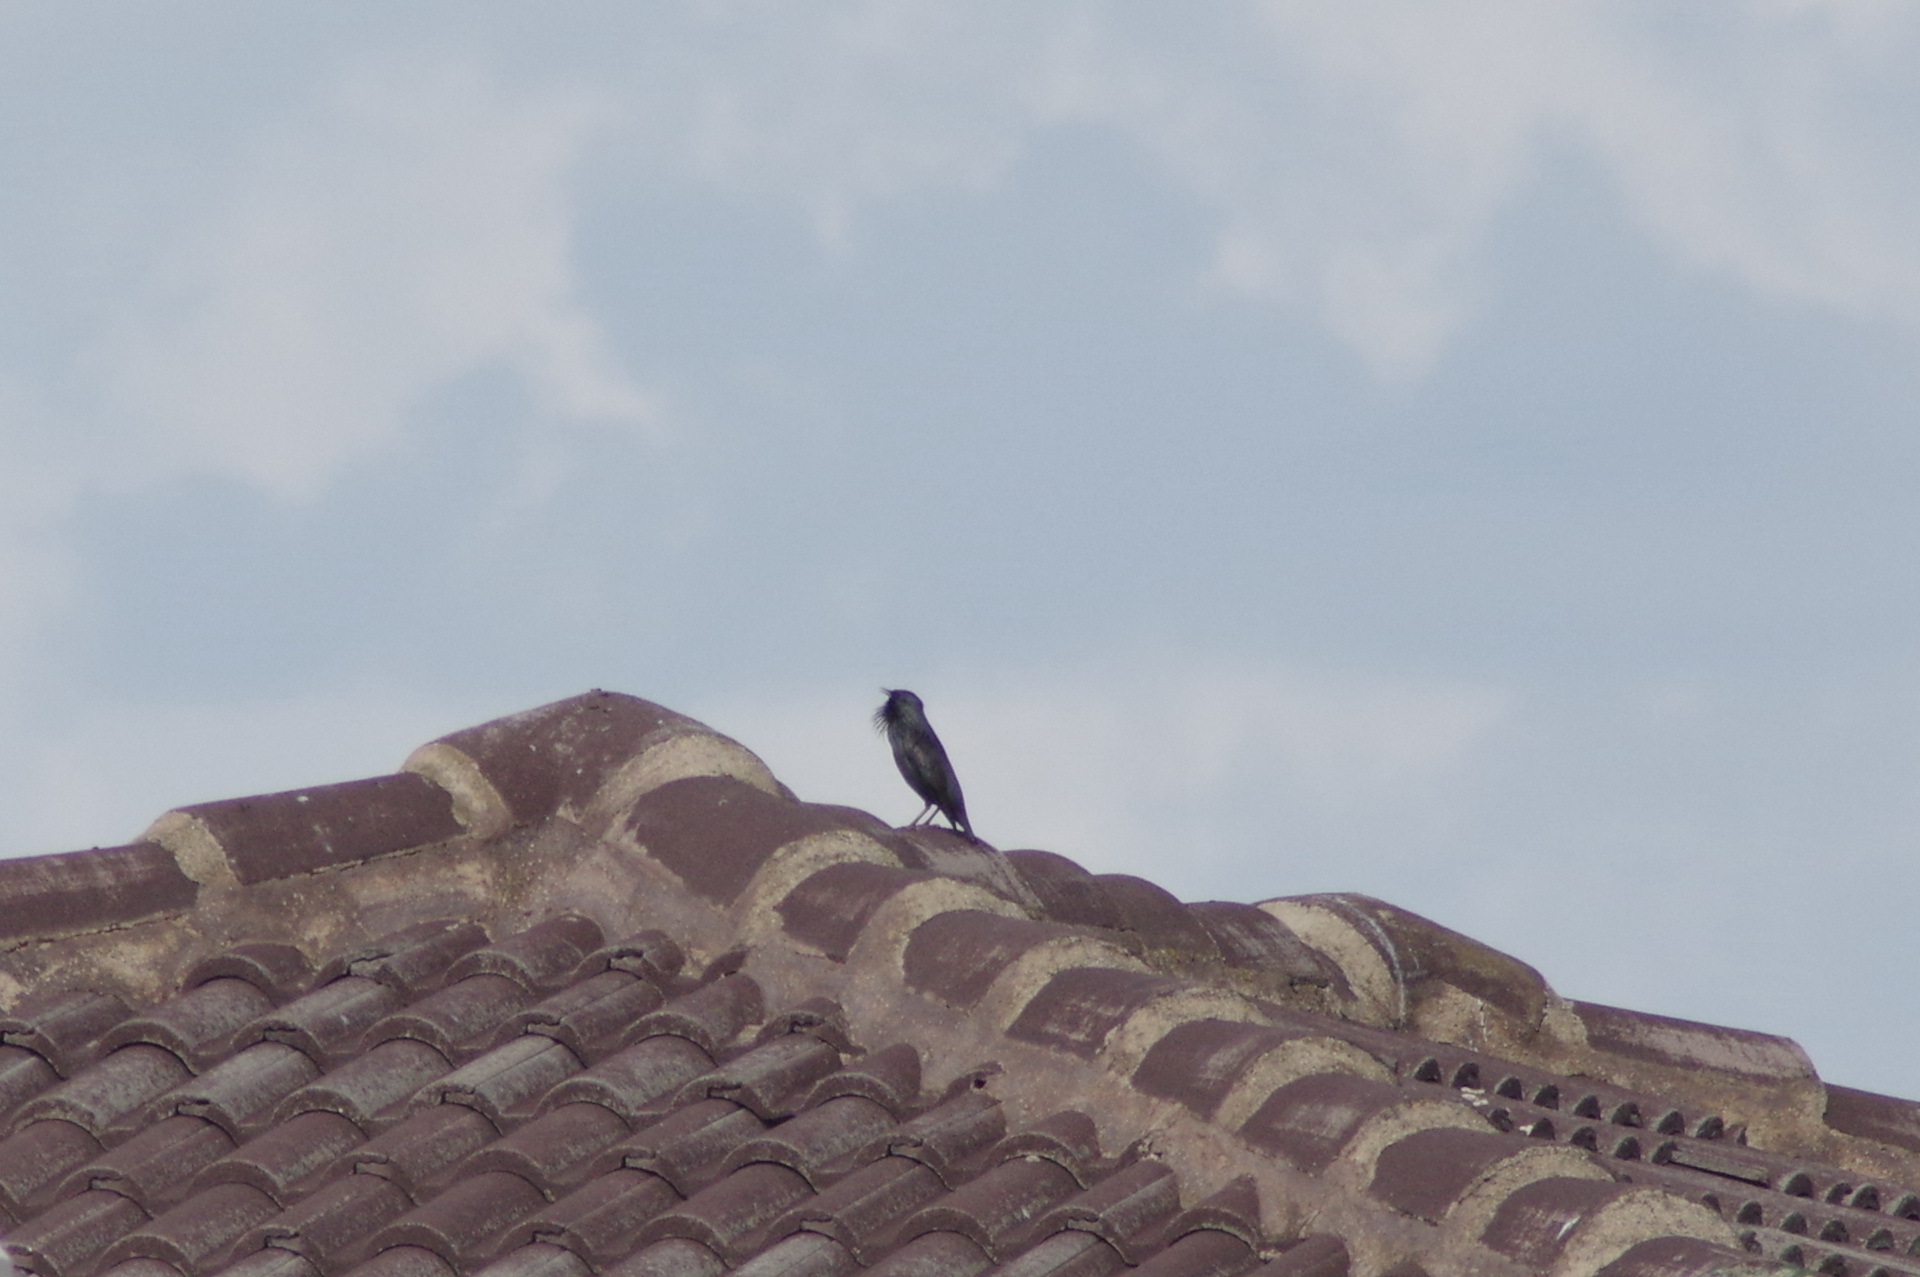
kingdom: Animalia
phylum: Chordata
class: Aves
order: Passeriformes
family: Sturnidae
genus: Sturnus
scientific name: Sturnus unicolor
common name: Spotless starling
